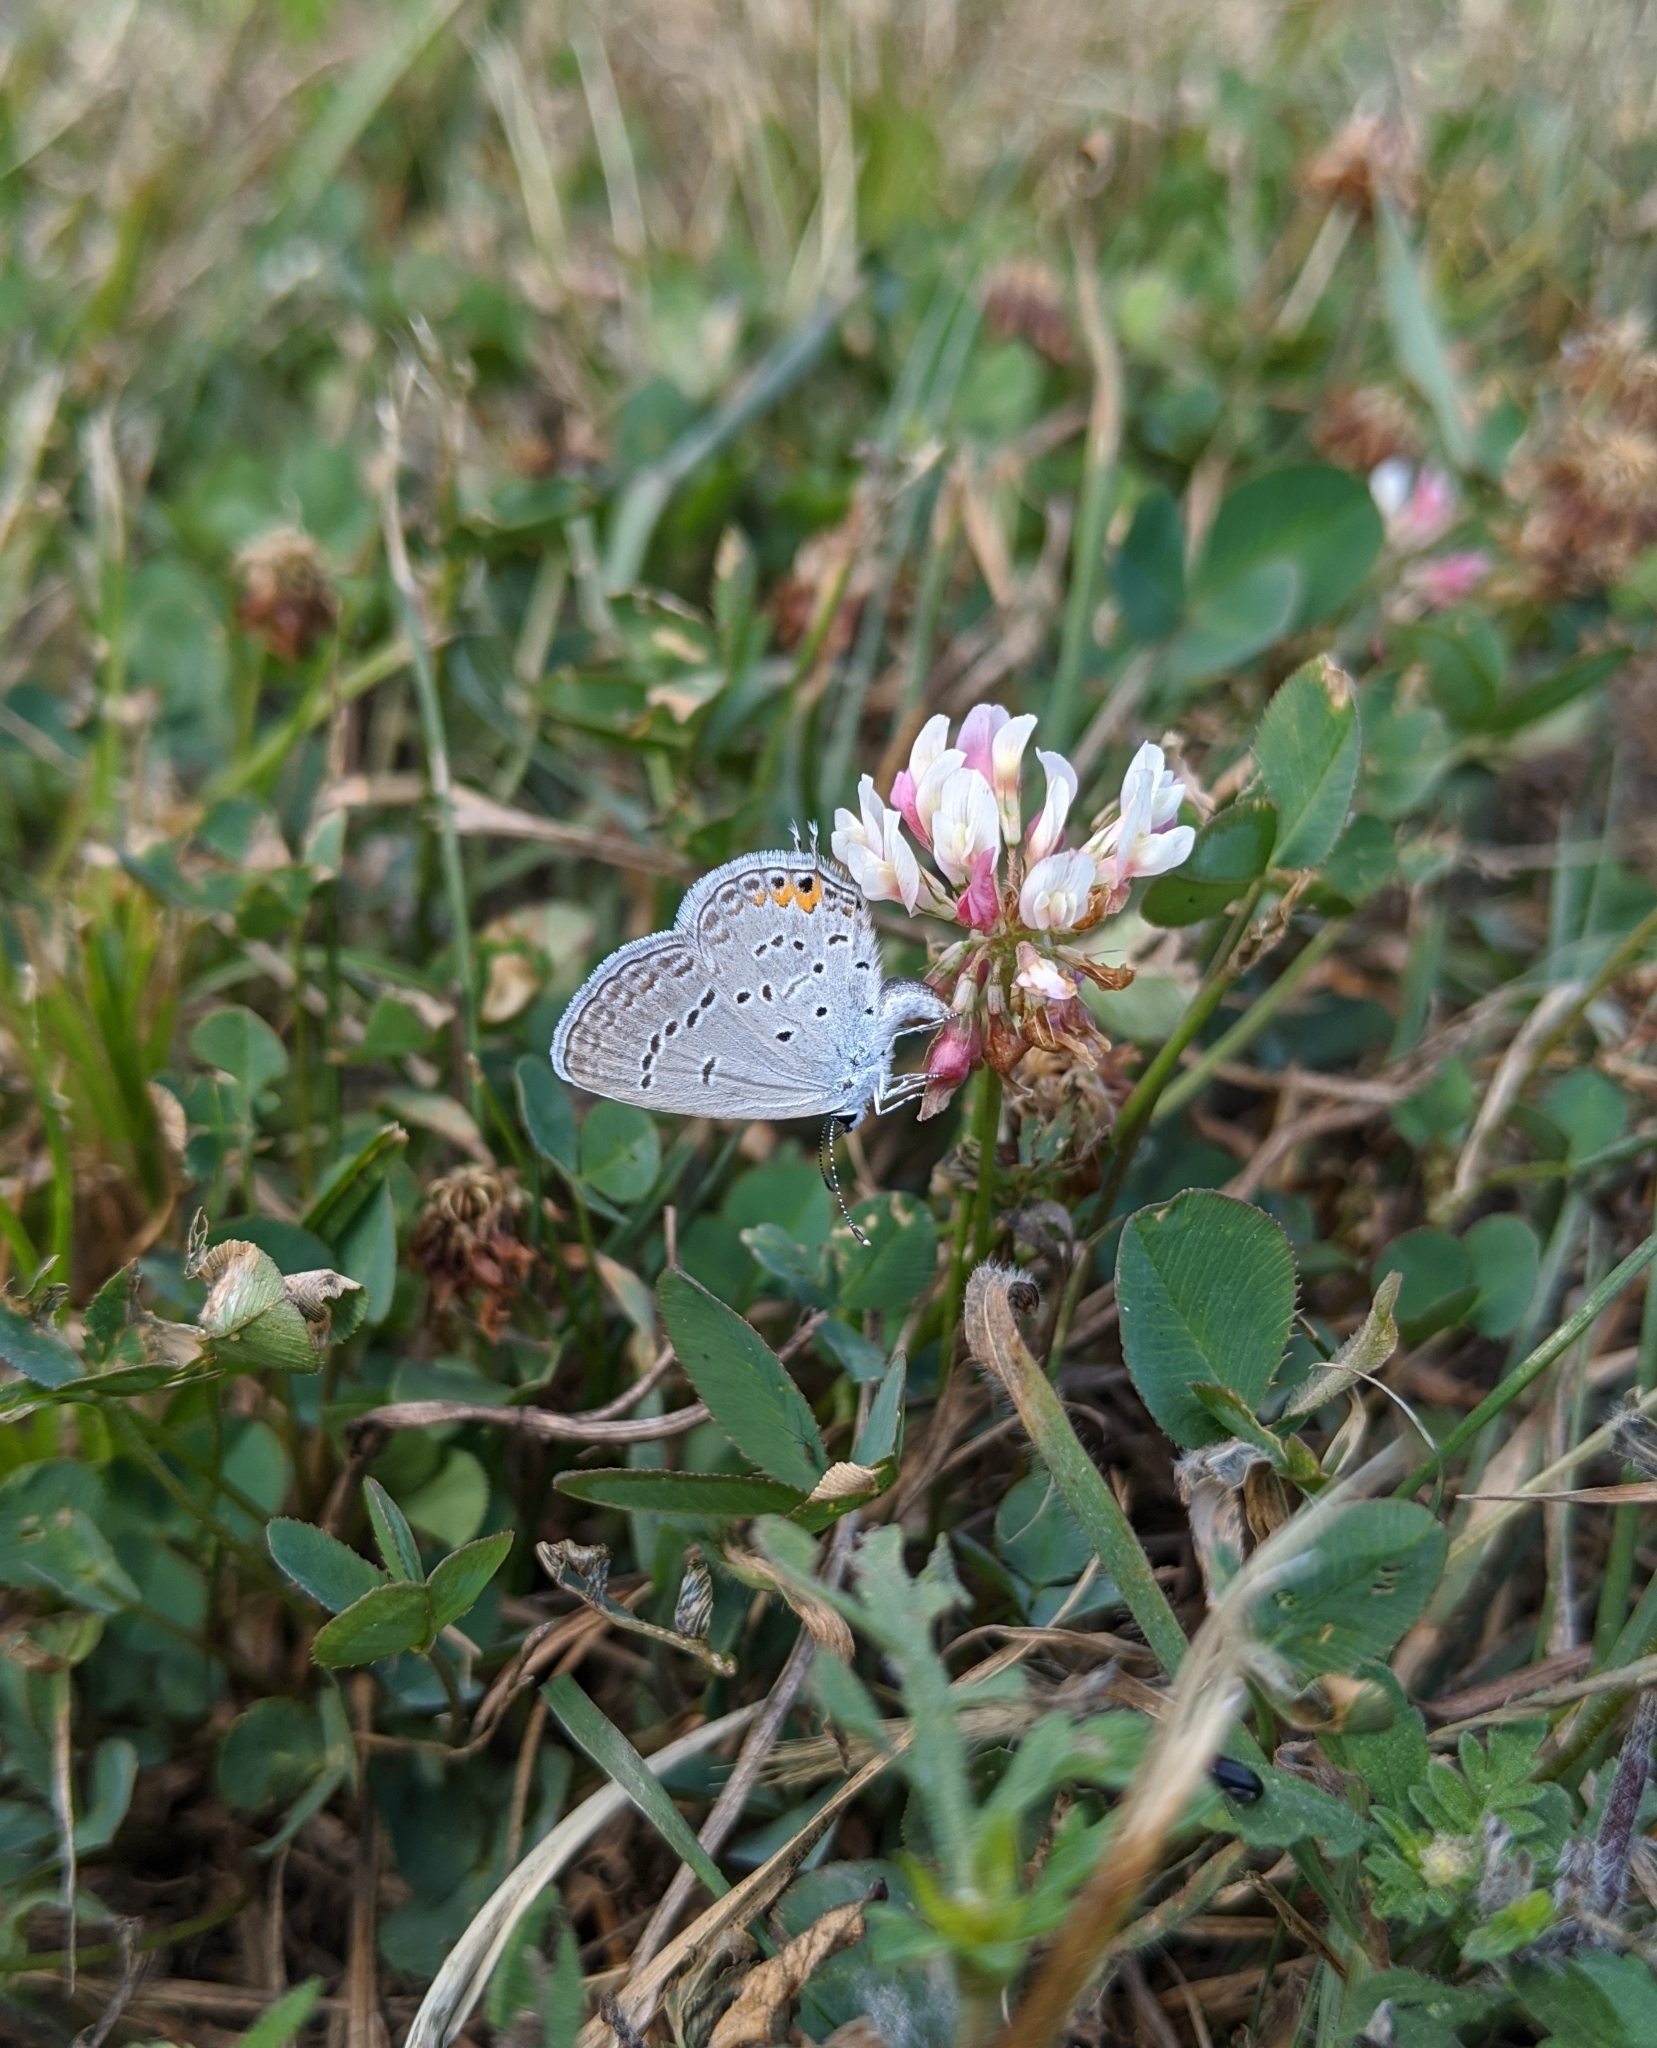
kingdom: Animalia
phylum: Arthropoda
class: Insecta
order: Lepidoptera
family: Lycaenidae
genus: Elkalyce
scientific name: Elkalyce comyntas
